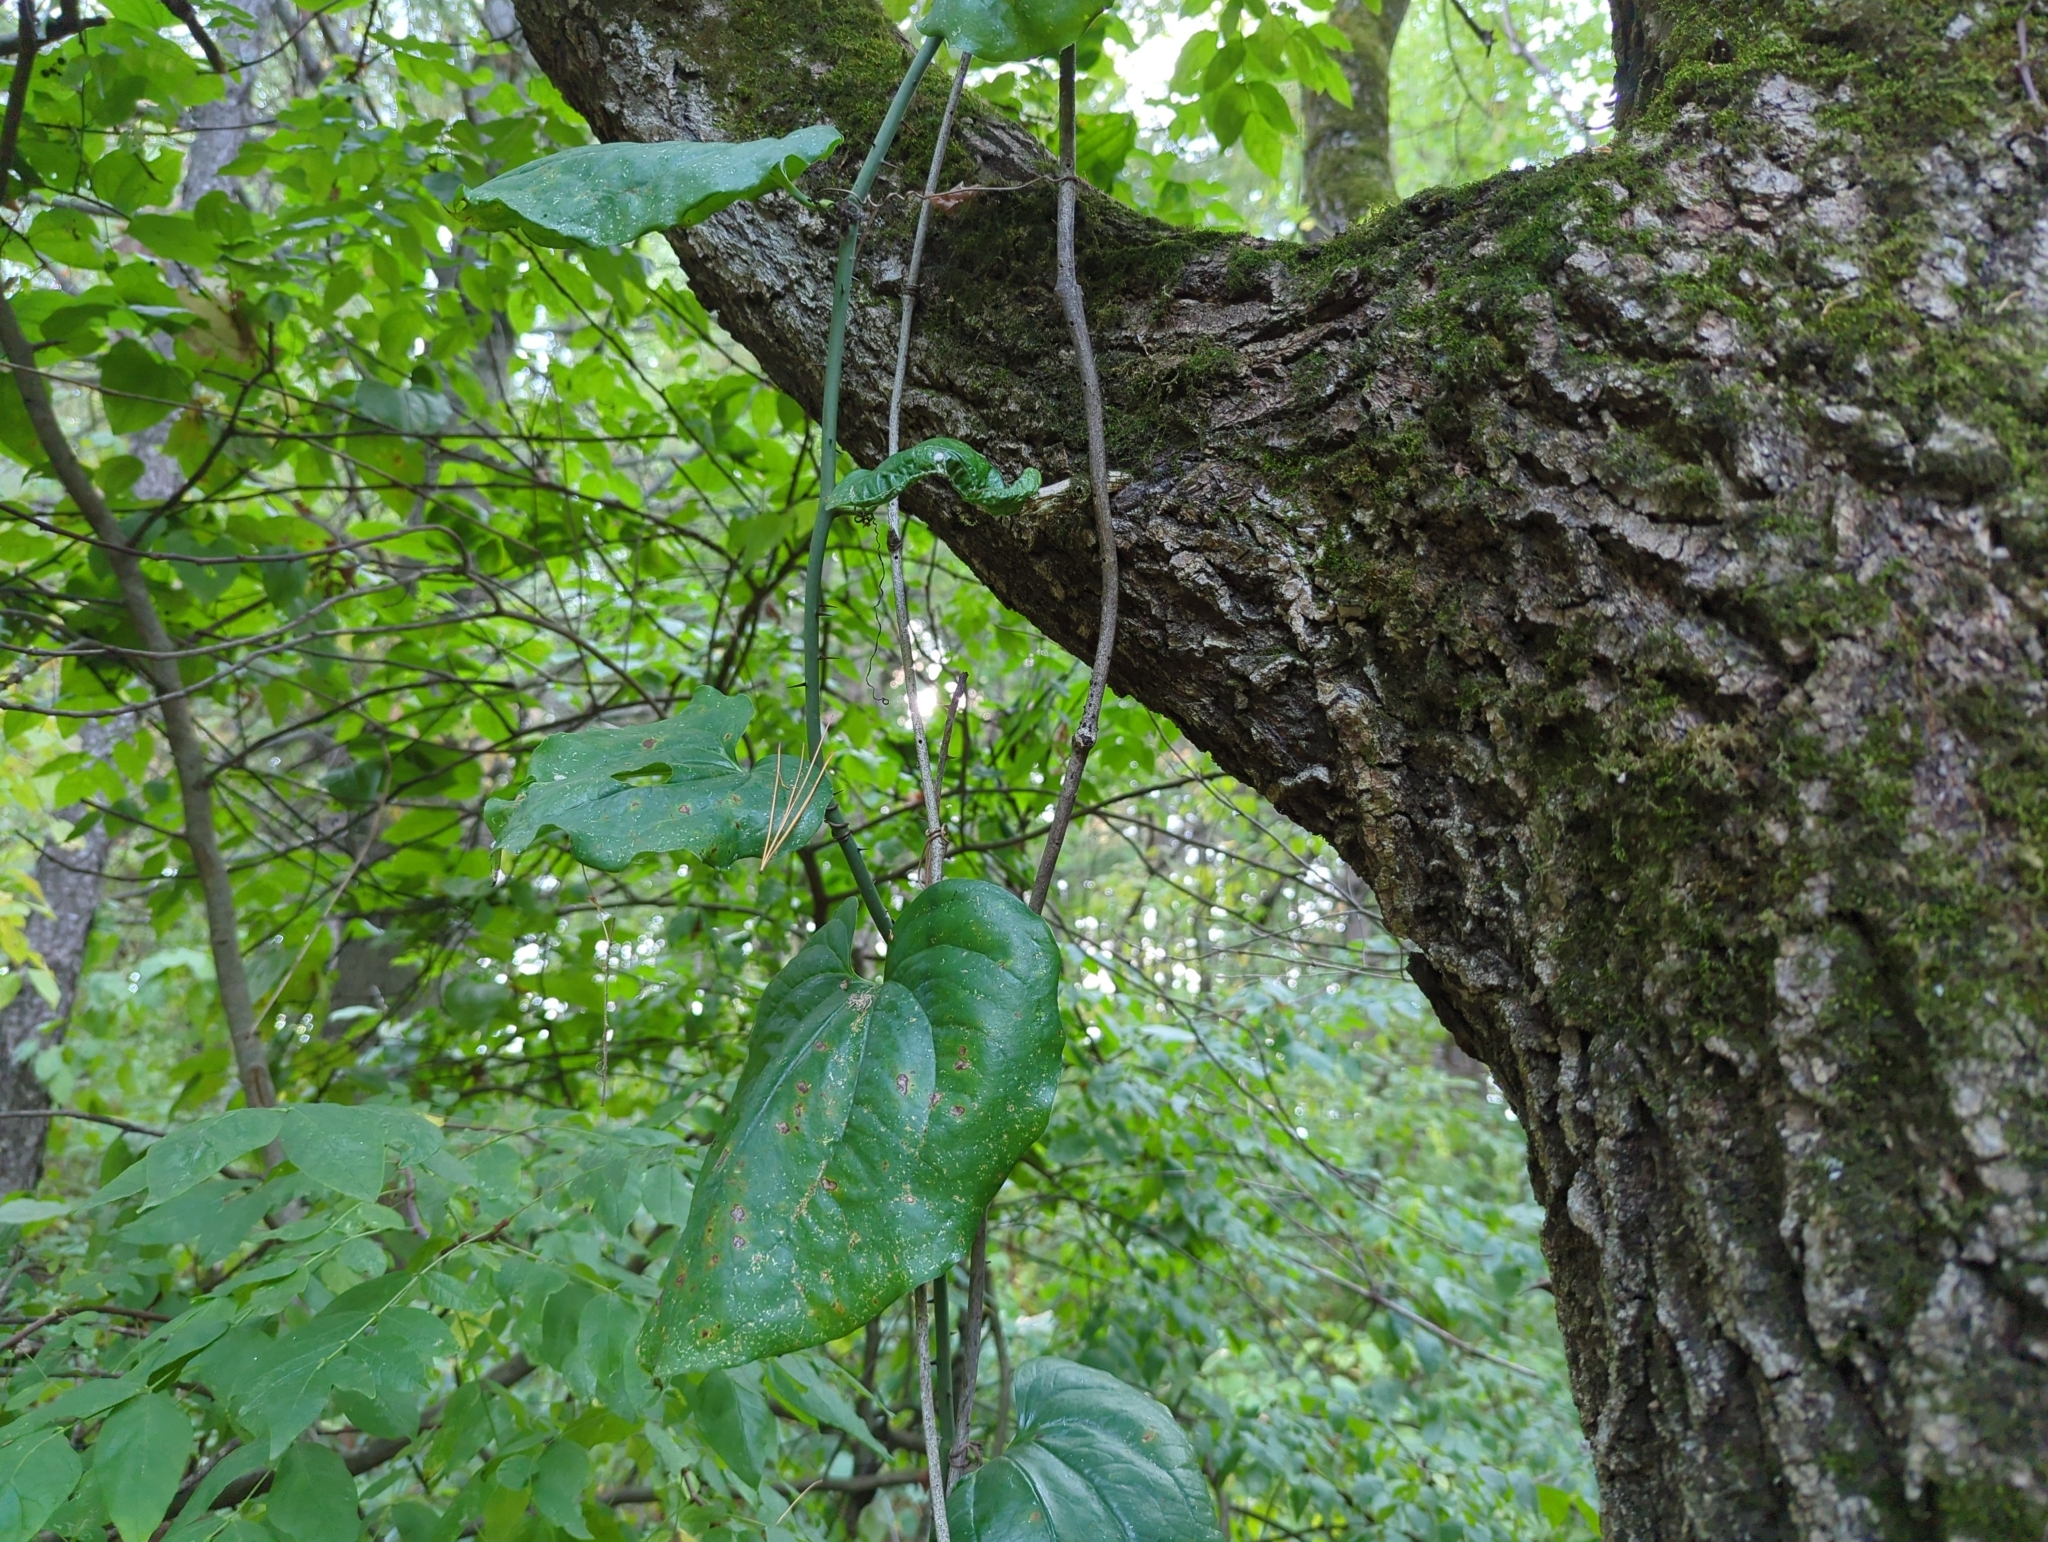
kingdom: Plantae
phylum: Tracheophyta
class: Liliopsida
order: Liliales
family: Smilacaceae
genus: Smilax
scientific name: Smilax tamnoides
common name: Hellfetter
